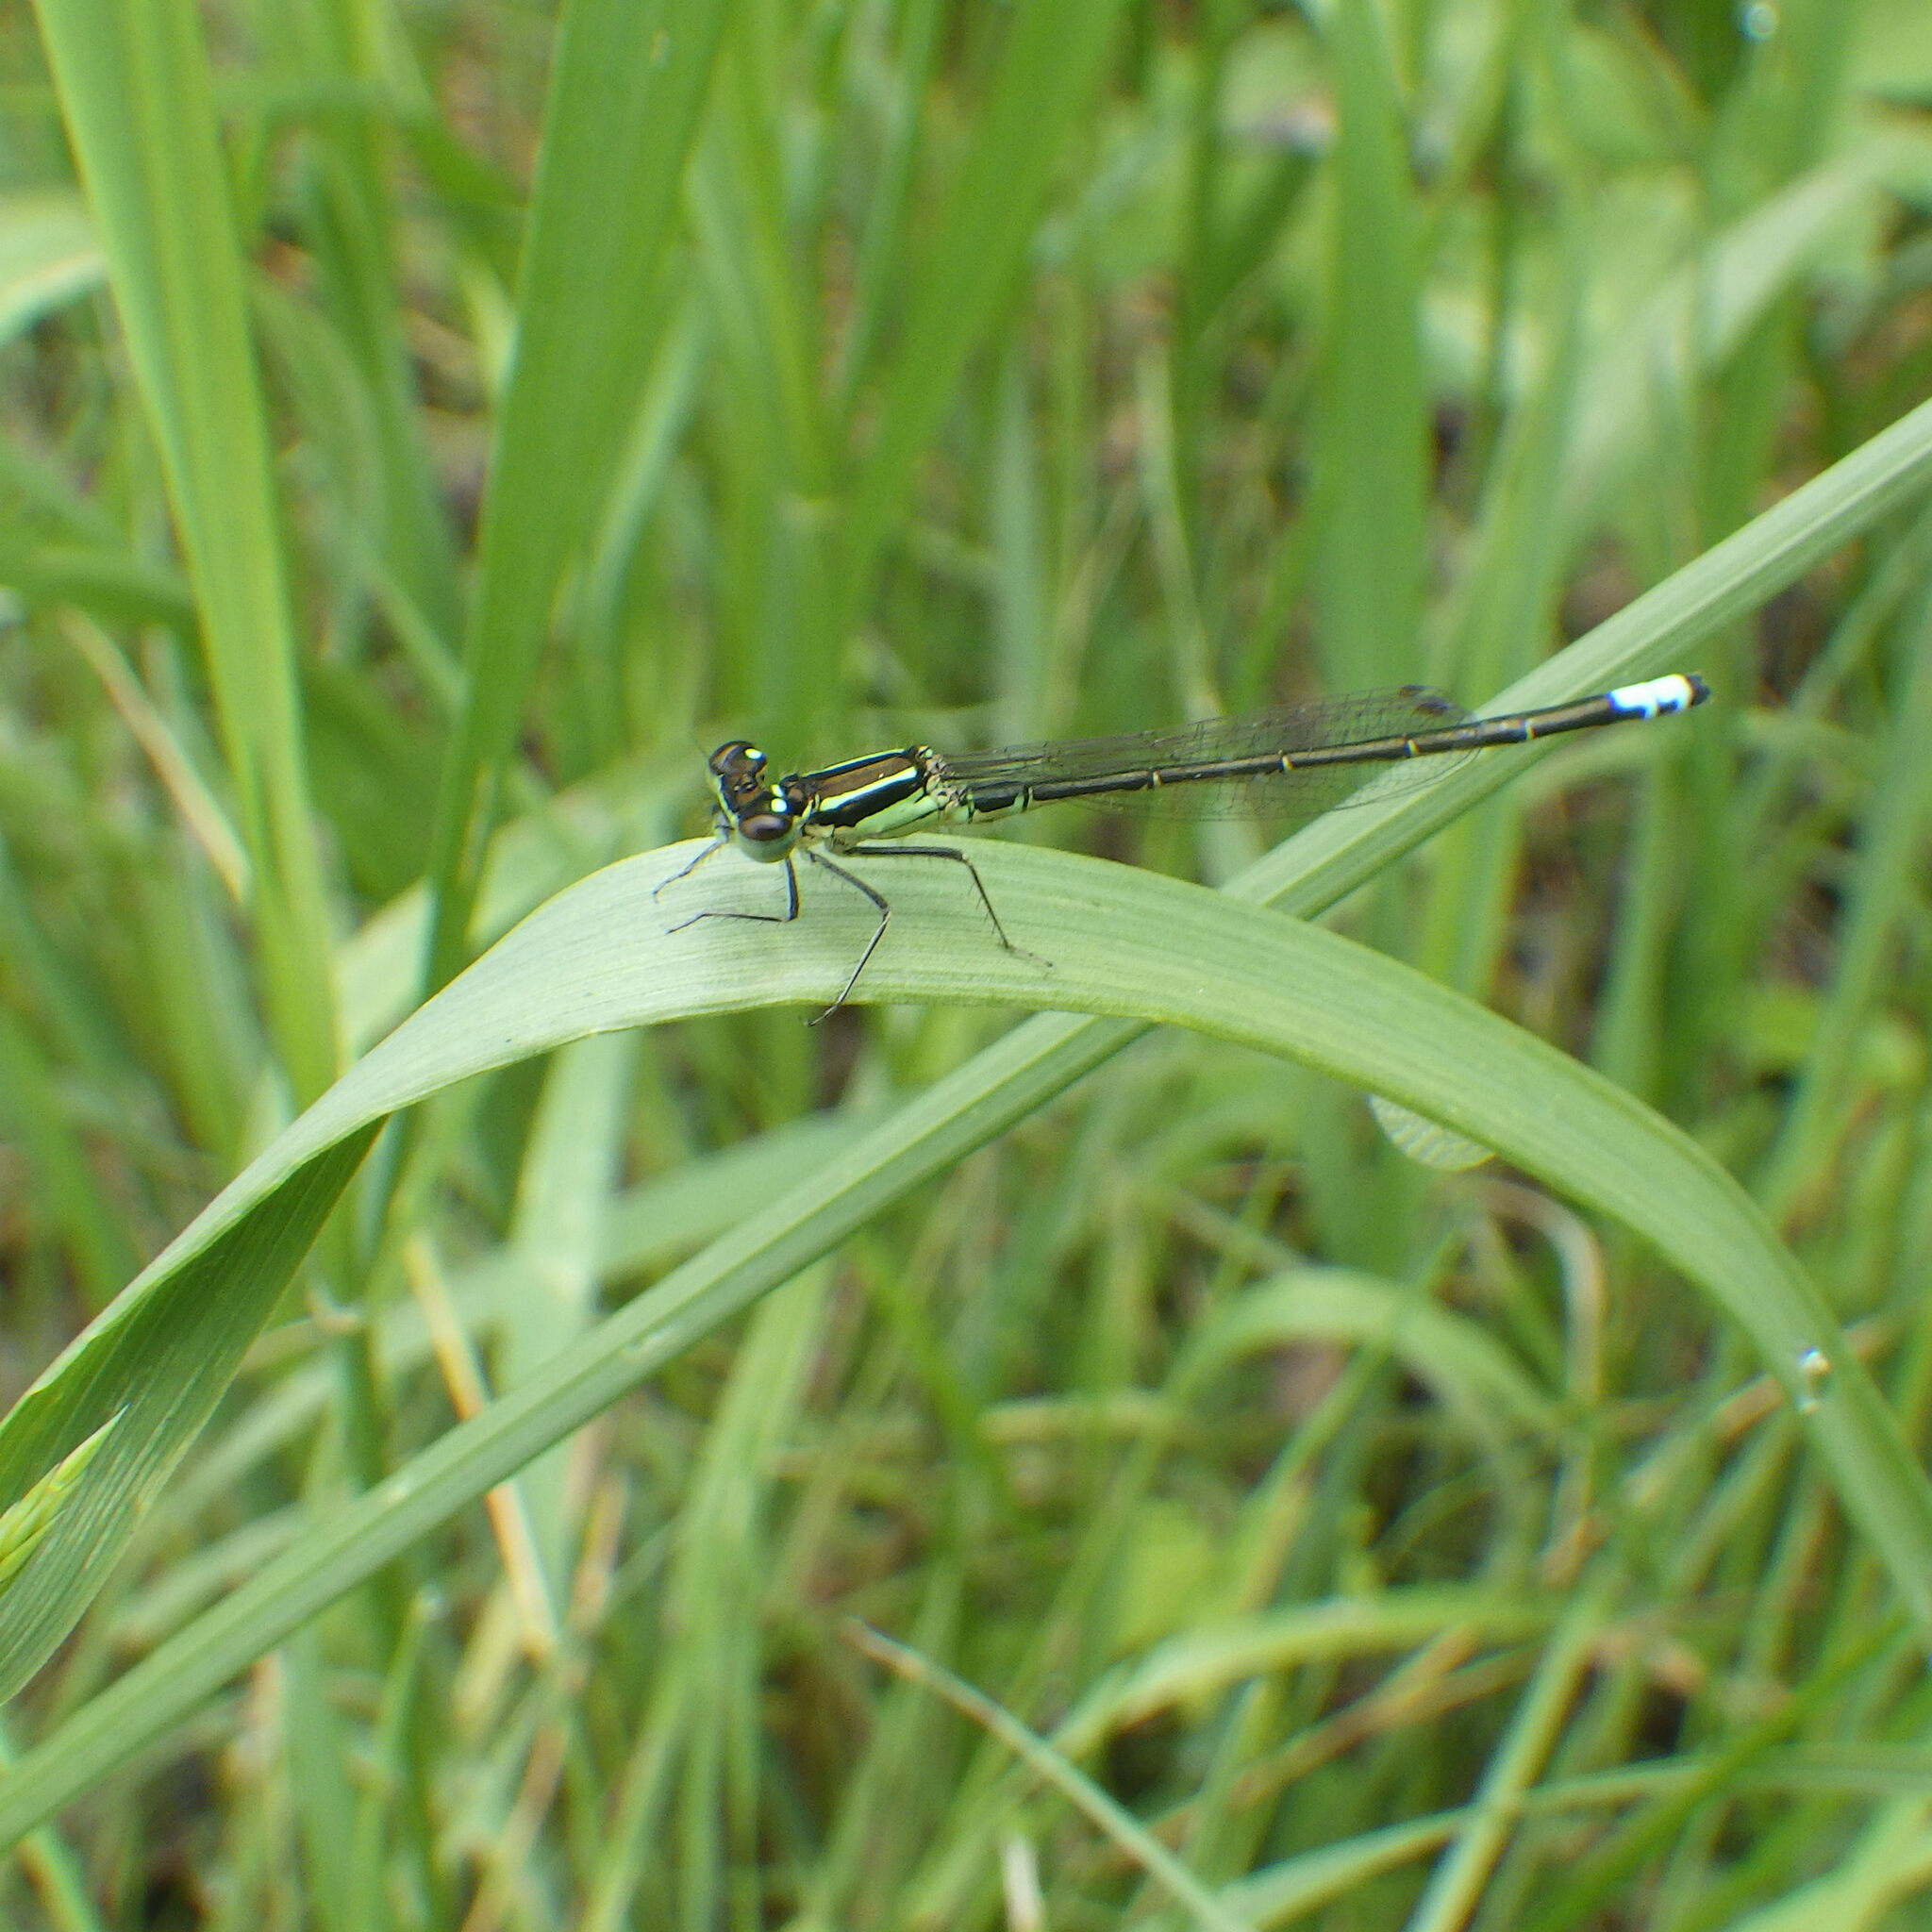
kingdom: Animalia
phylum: Arthropoda
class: Insecta
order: Odonata
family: Coenagrionidae
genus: Ischnura
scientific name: Ischnura verticalis
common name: Eastern forktail
